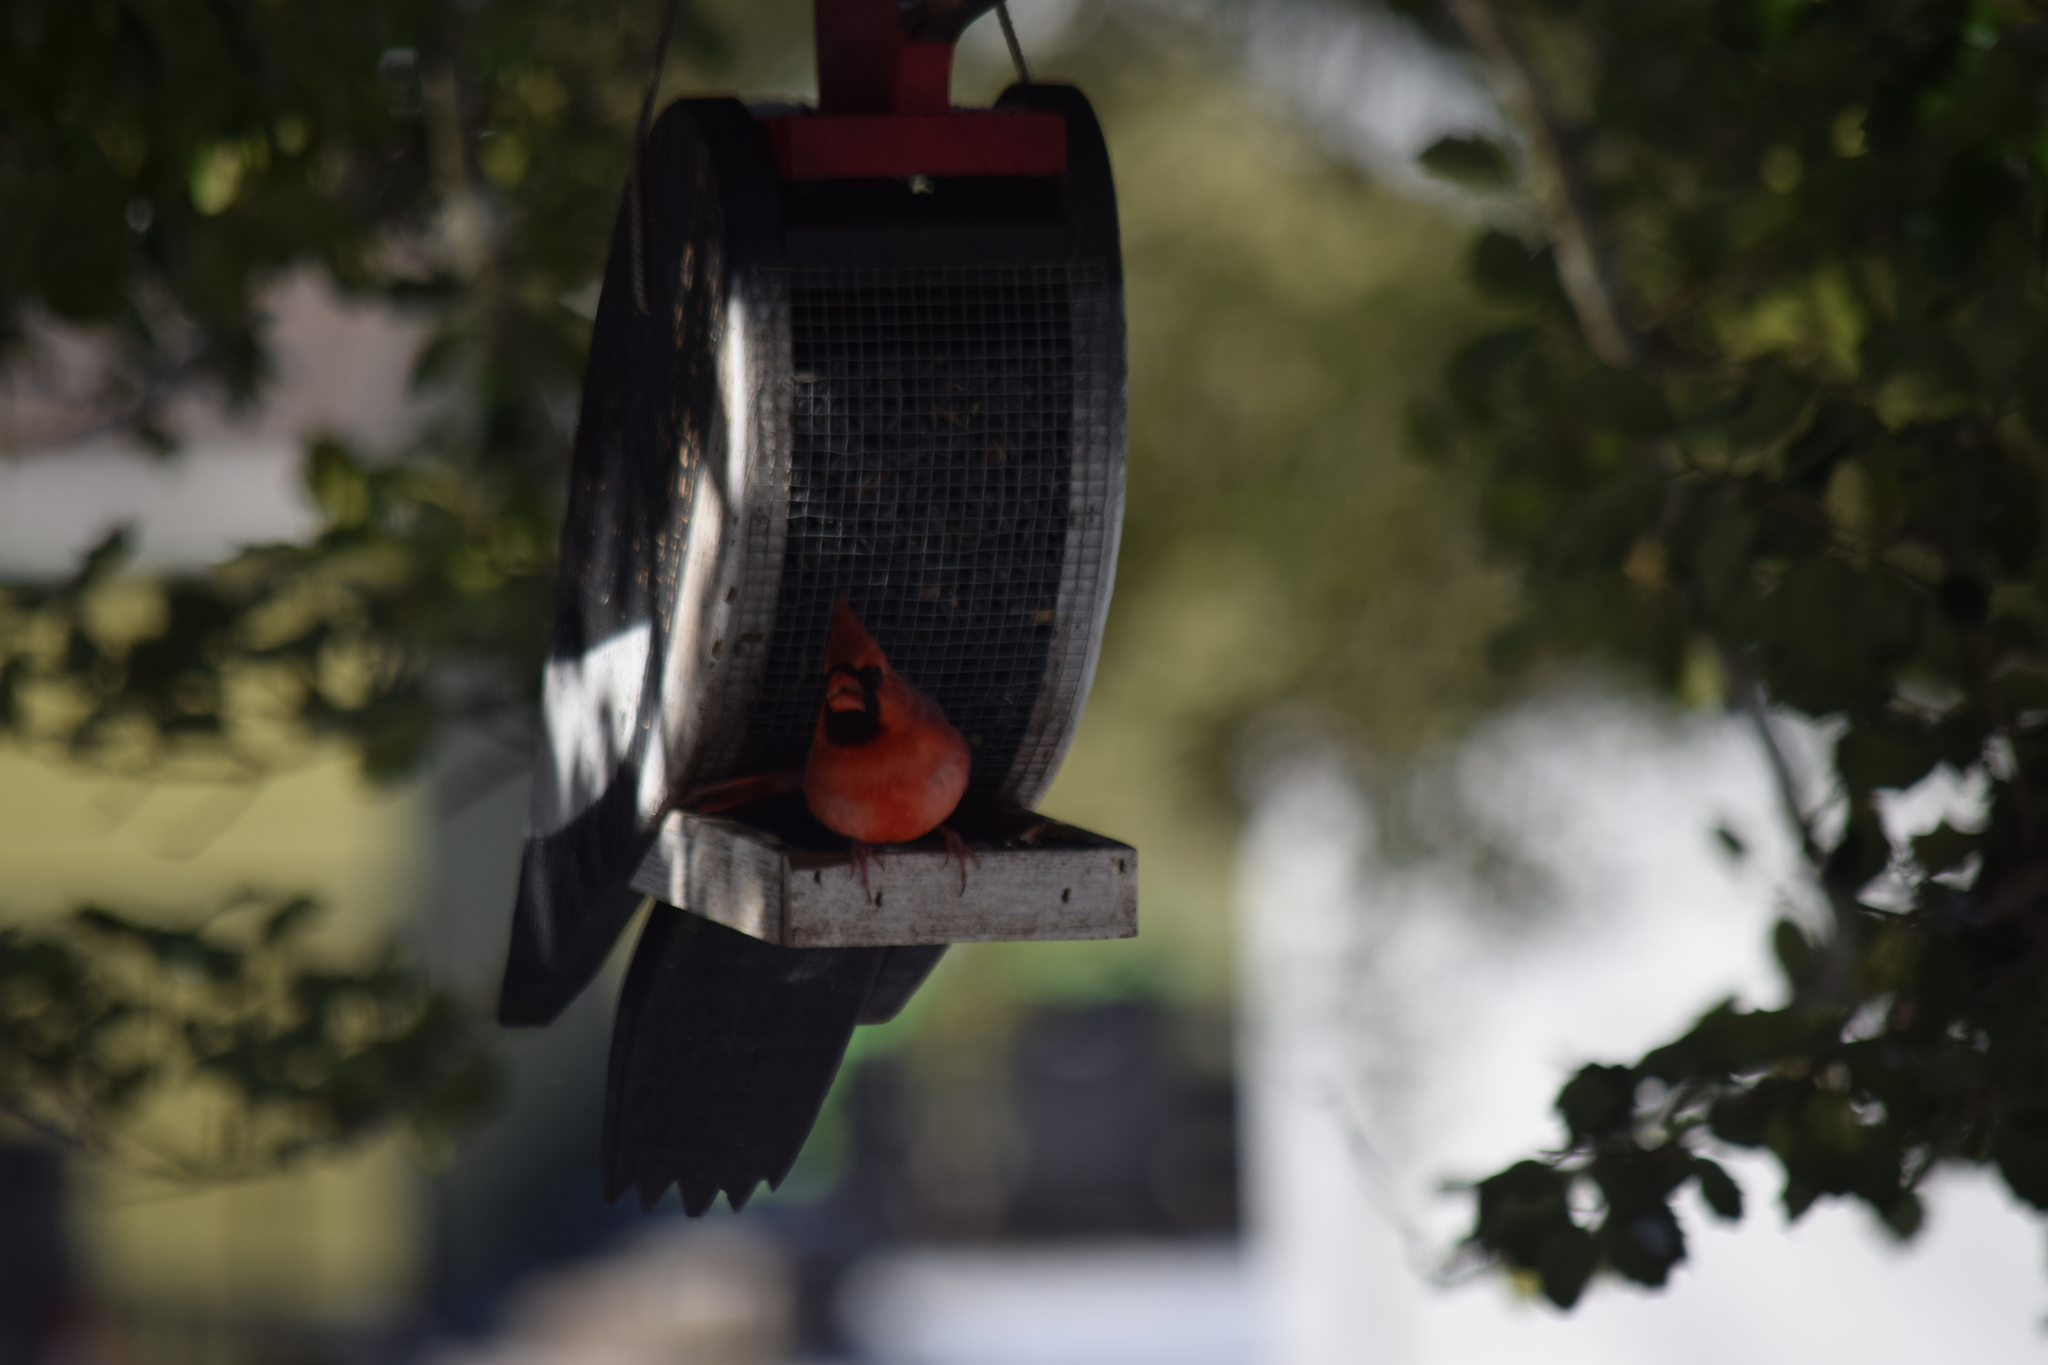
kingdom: Animalia
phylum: Chordata
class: Aves
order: Passeriformes
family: Cardinalidae
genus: Cardinalis
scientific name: Cardinalis cardinalis
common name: Northern cardinal
